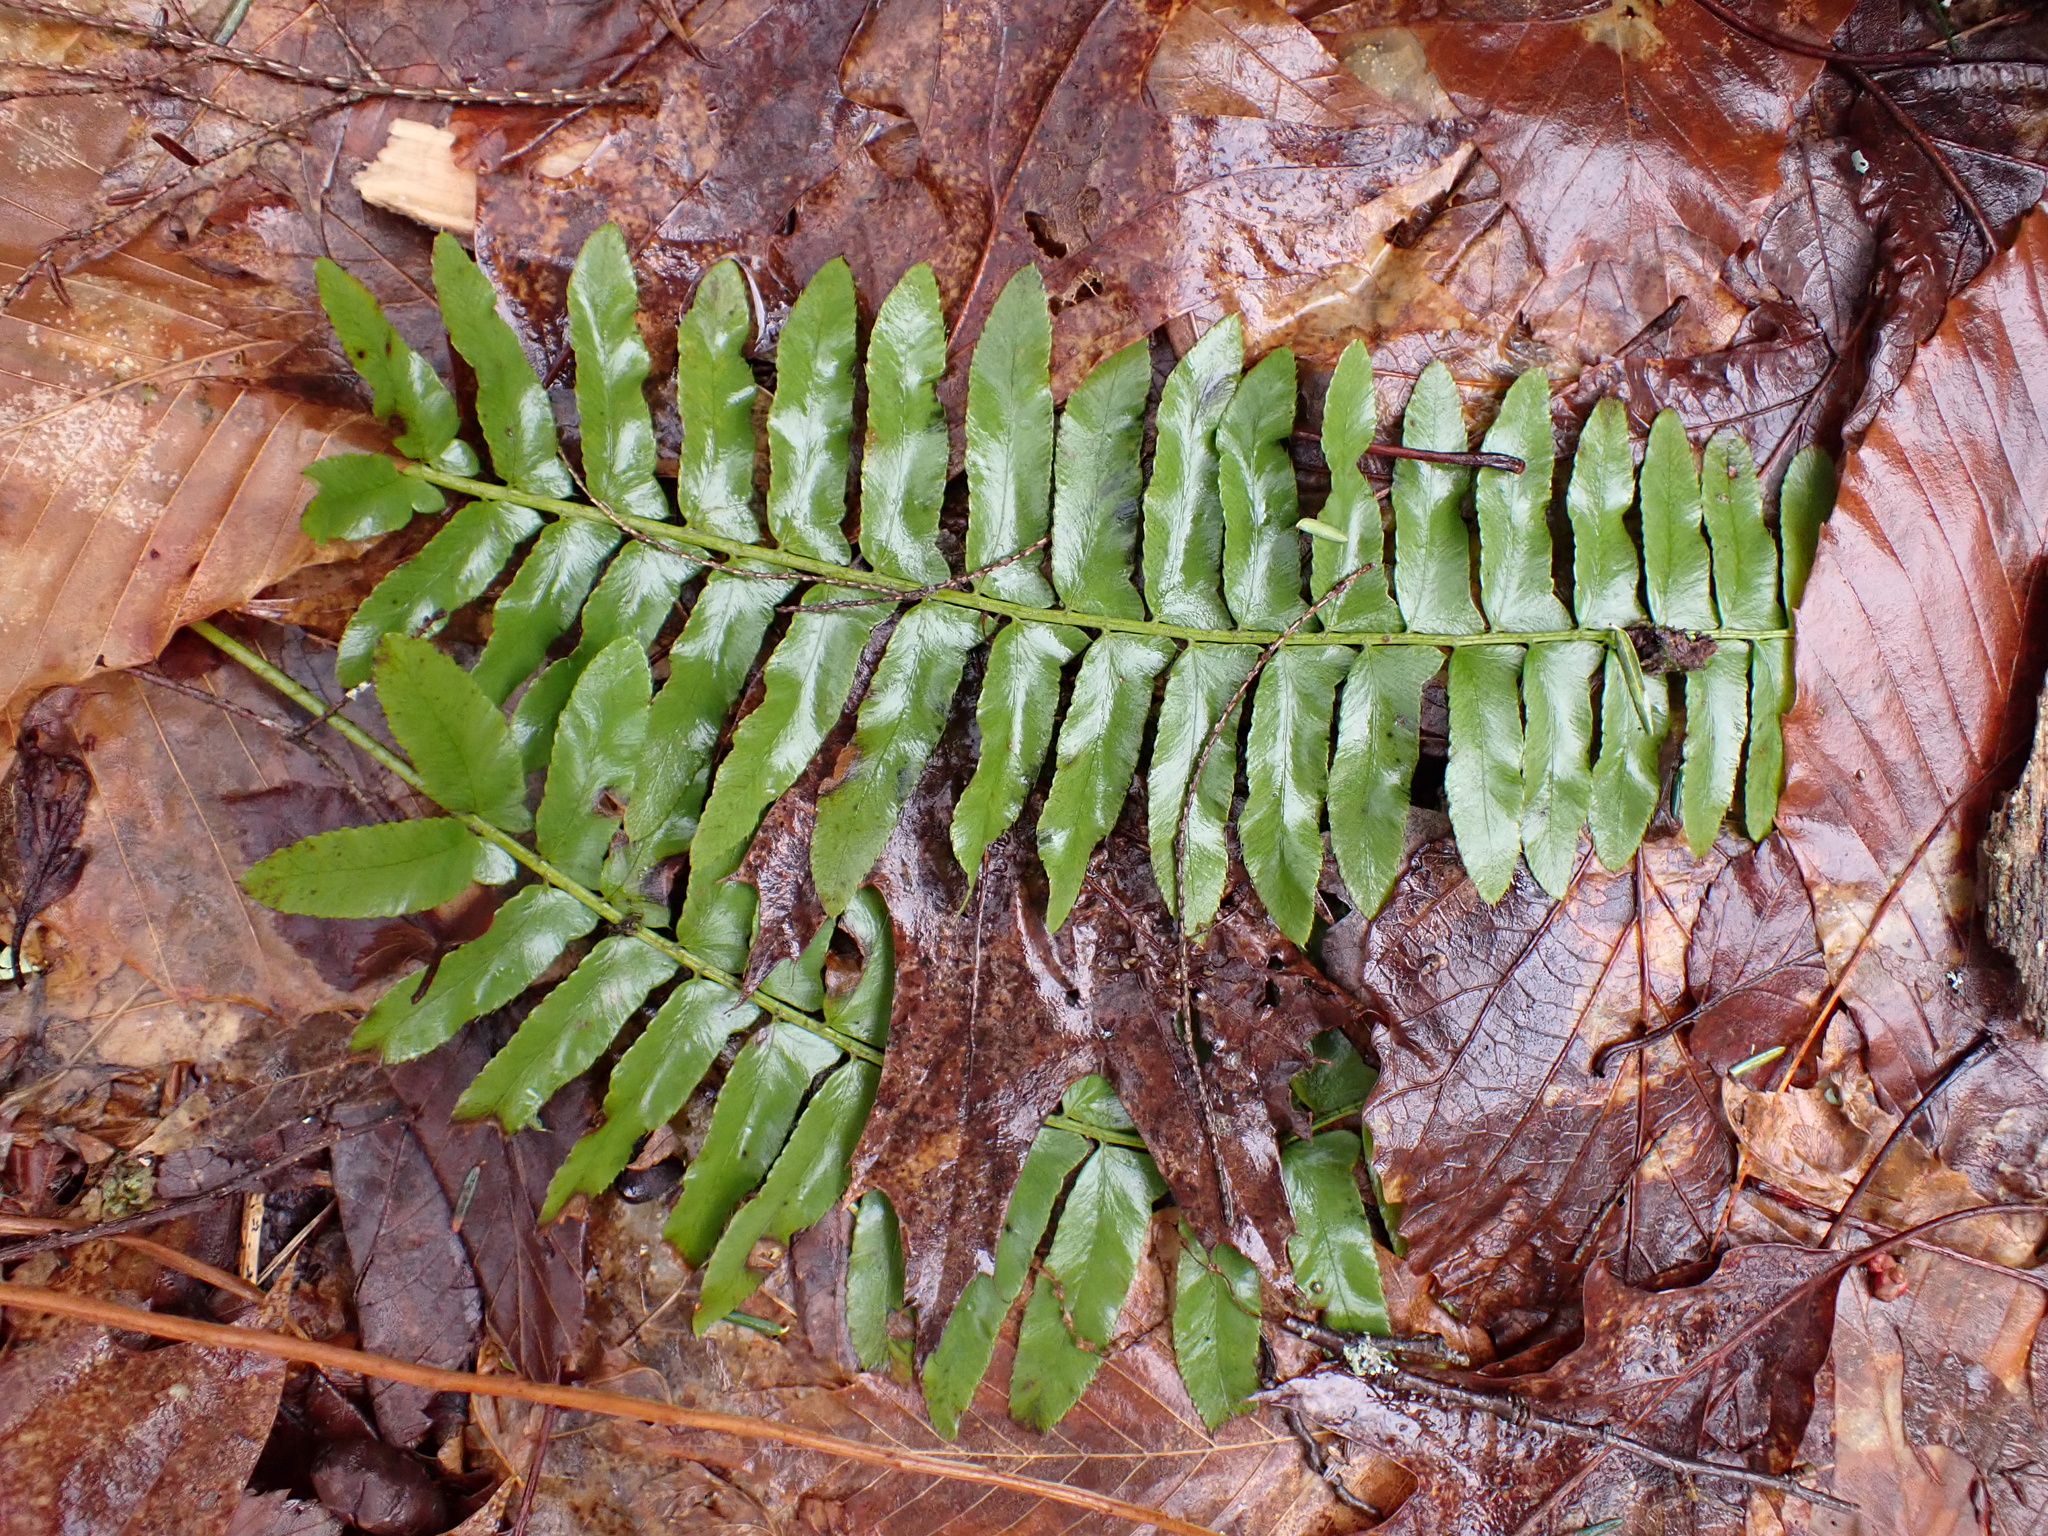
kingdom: Plantae
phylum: Tracheophyta
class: Polypodiopsida
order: Polypodiales
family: Dryopteridaceae
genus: Polystichum
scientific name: Polystichum acrostichoides
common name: Christmas fern
